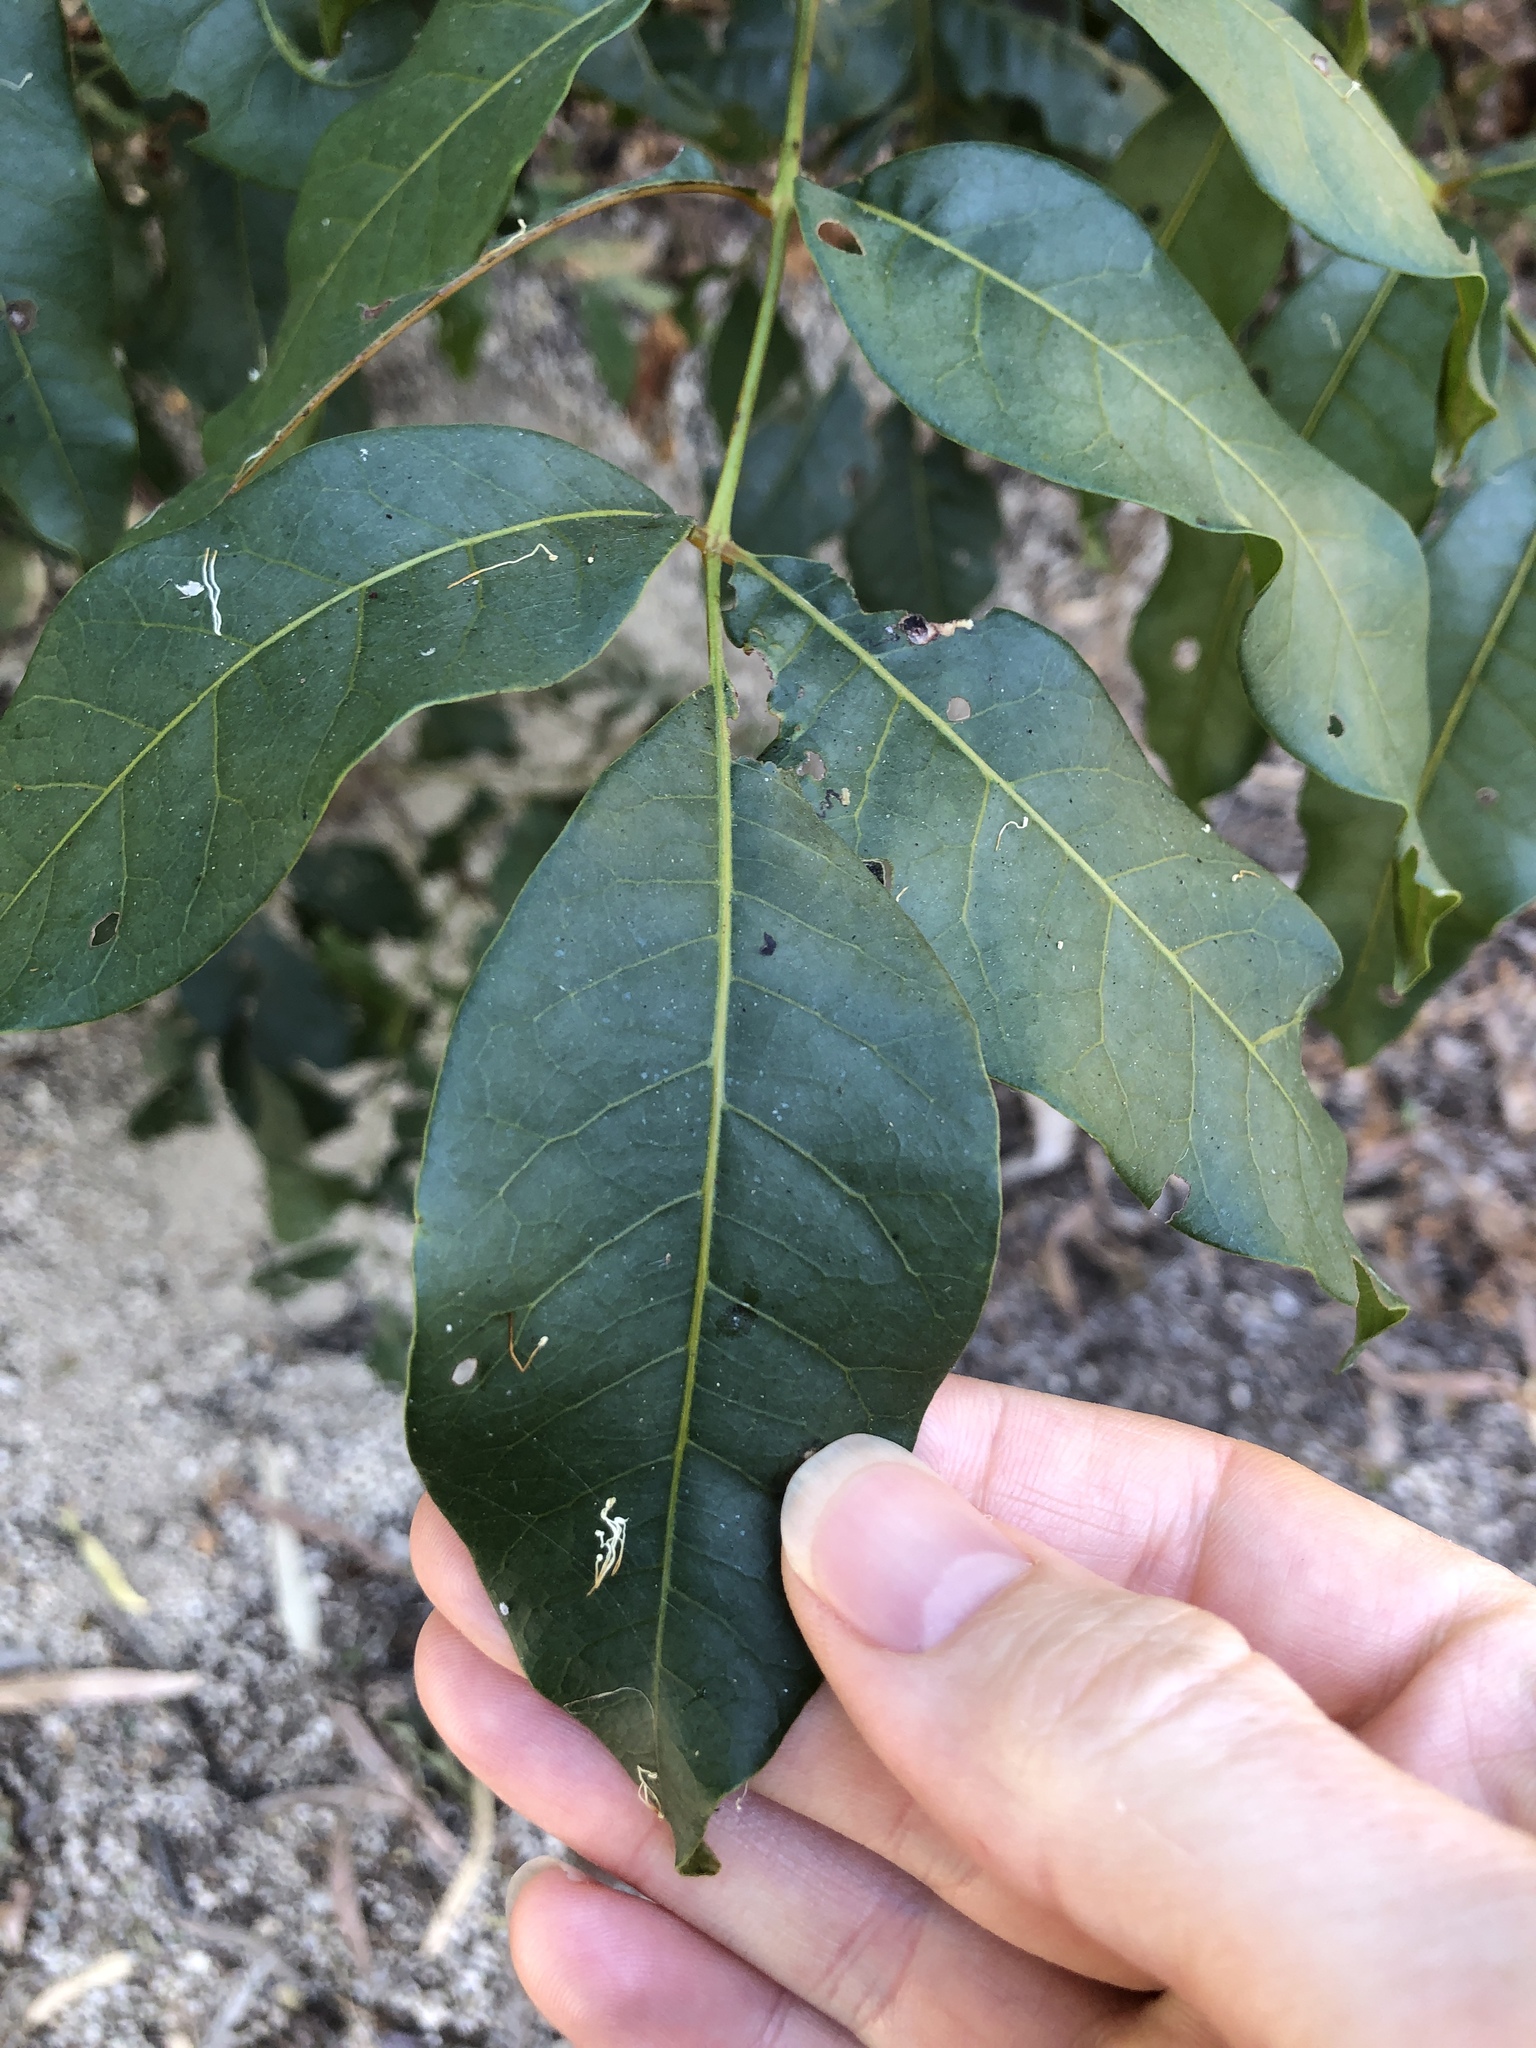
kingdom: Plantae
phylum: Tracheophyta
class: Magnoliopsida
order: Sapindales
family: Anacardiaceae
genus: Pleiogynium
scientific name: Pleiogynium timoriense
